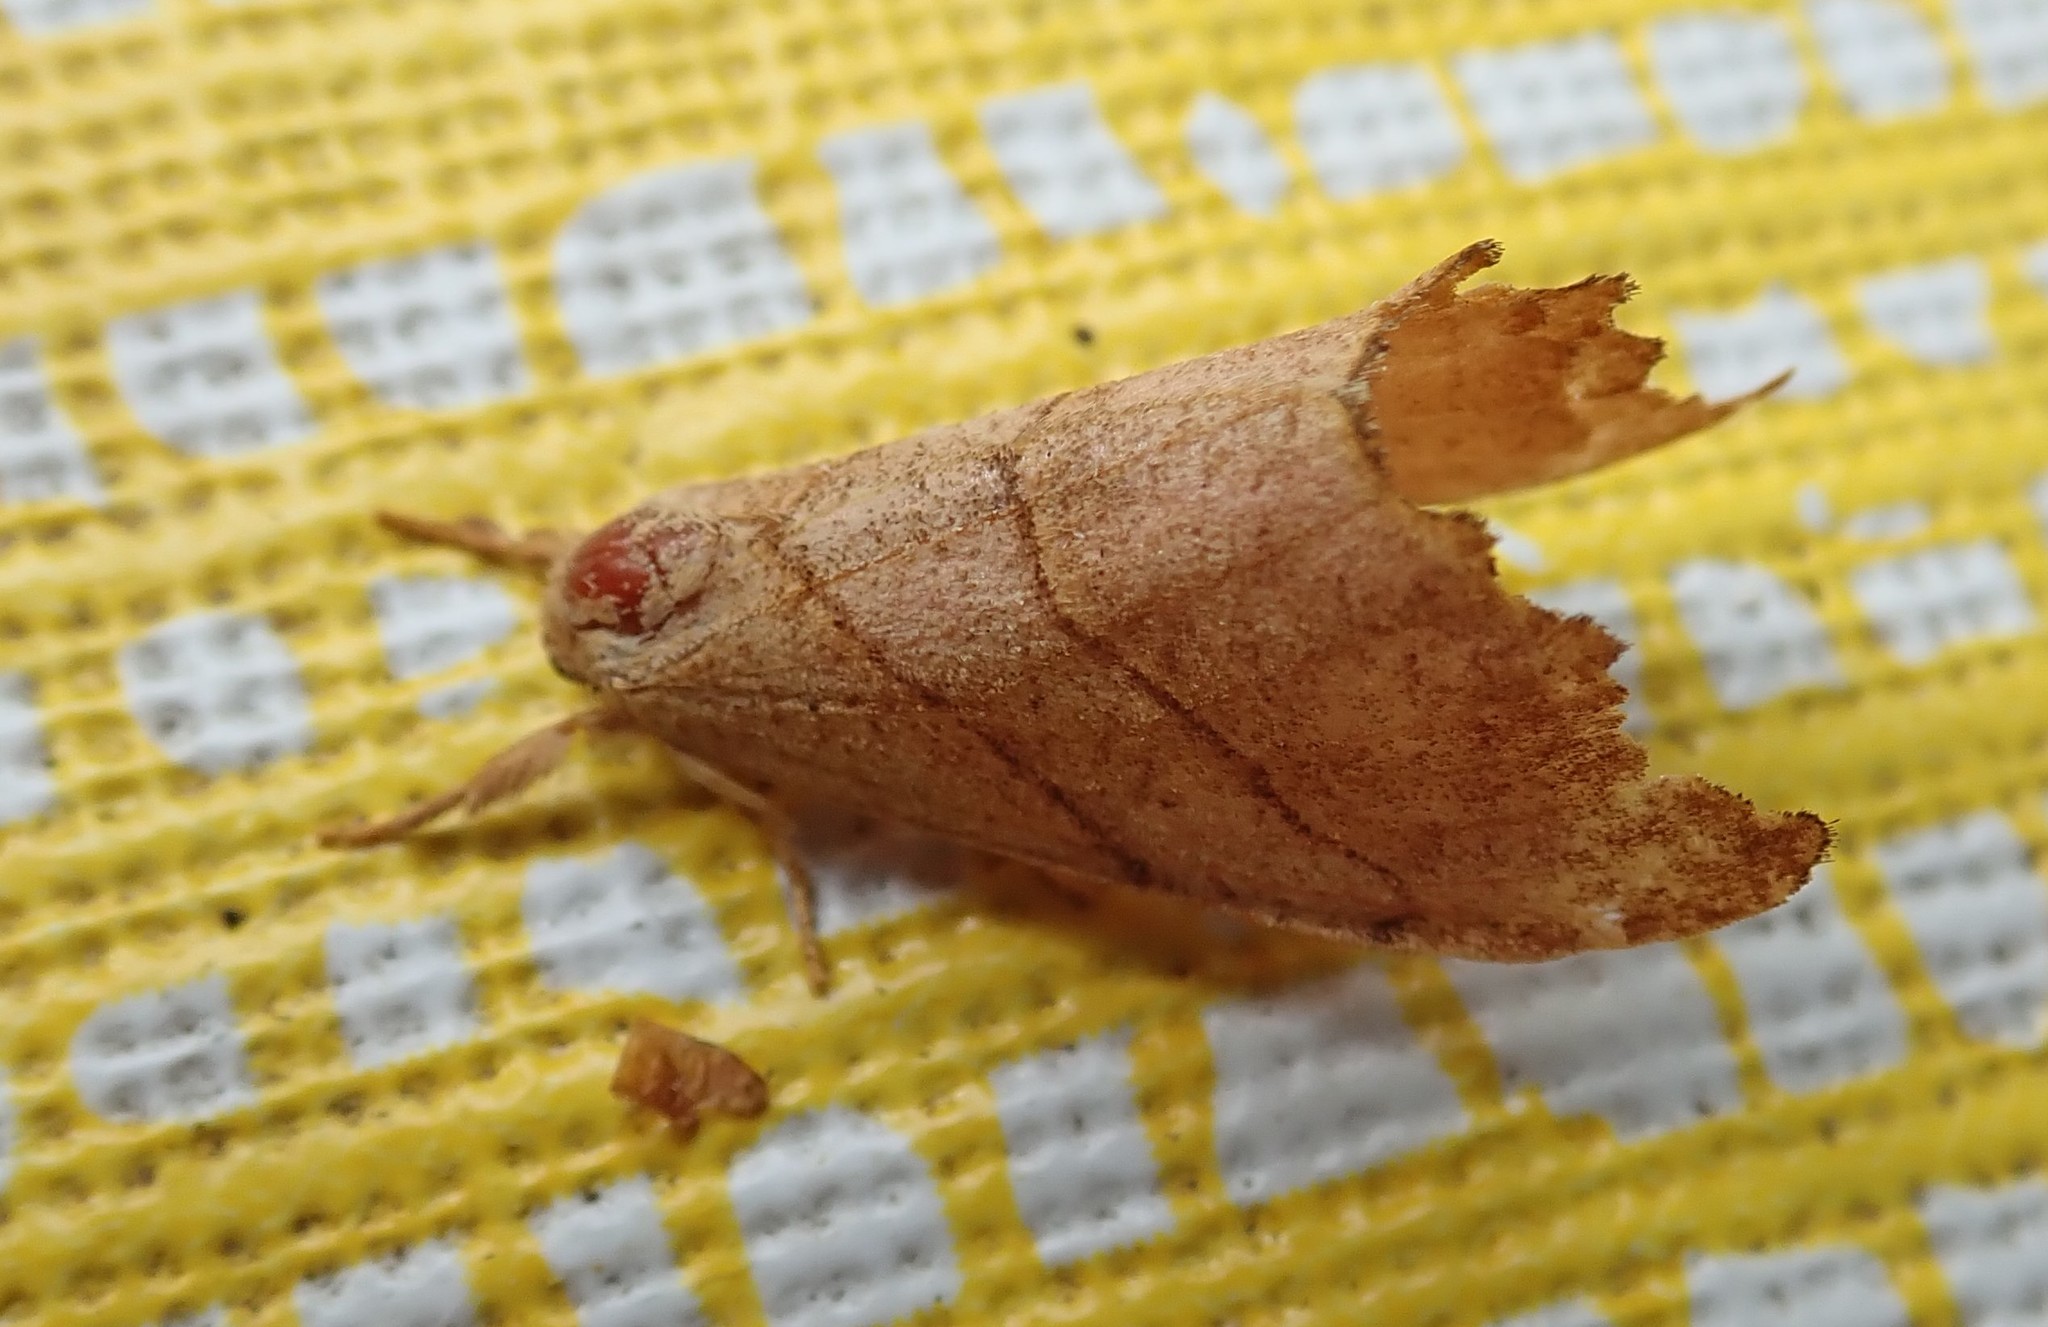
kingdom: Animalia
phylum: Arthropoda
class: Insecta
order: Lepidoptera
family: Drepanidae
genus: Falcaria
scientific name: Falcaria bilineata
